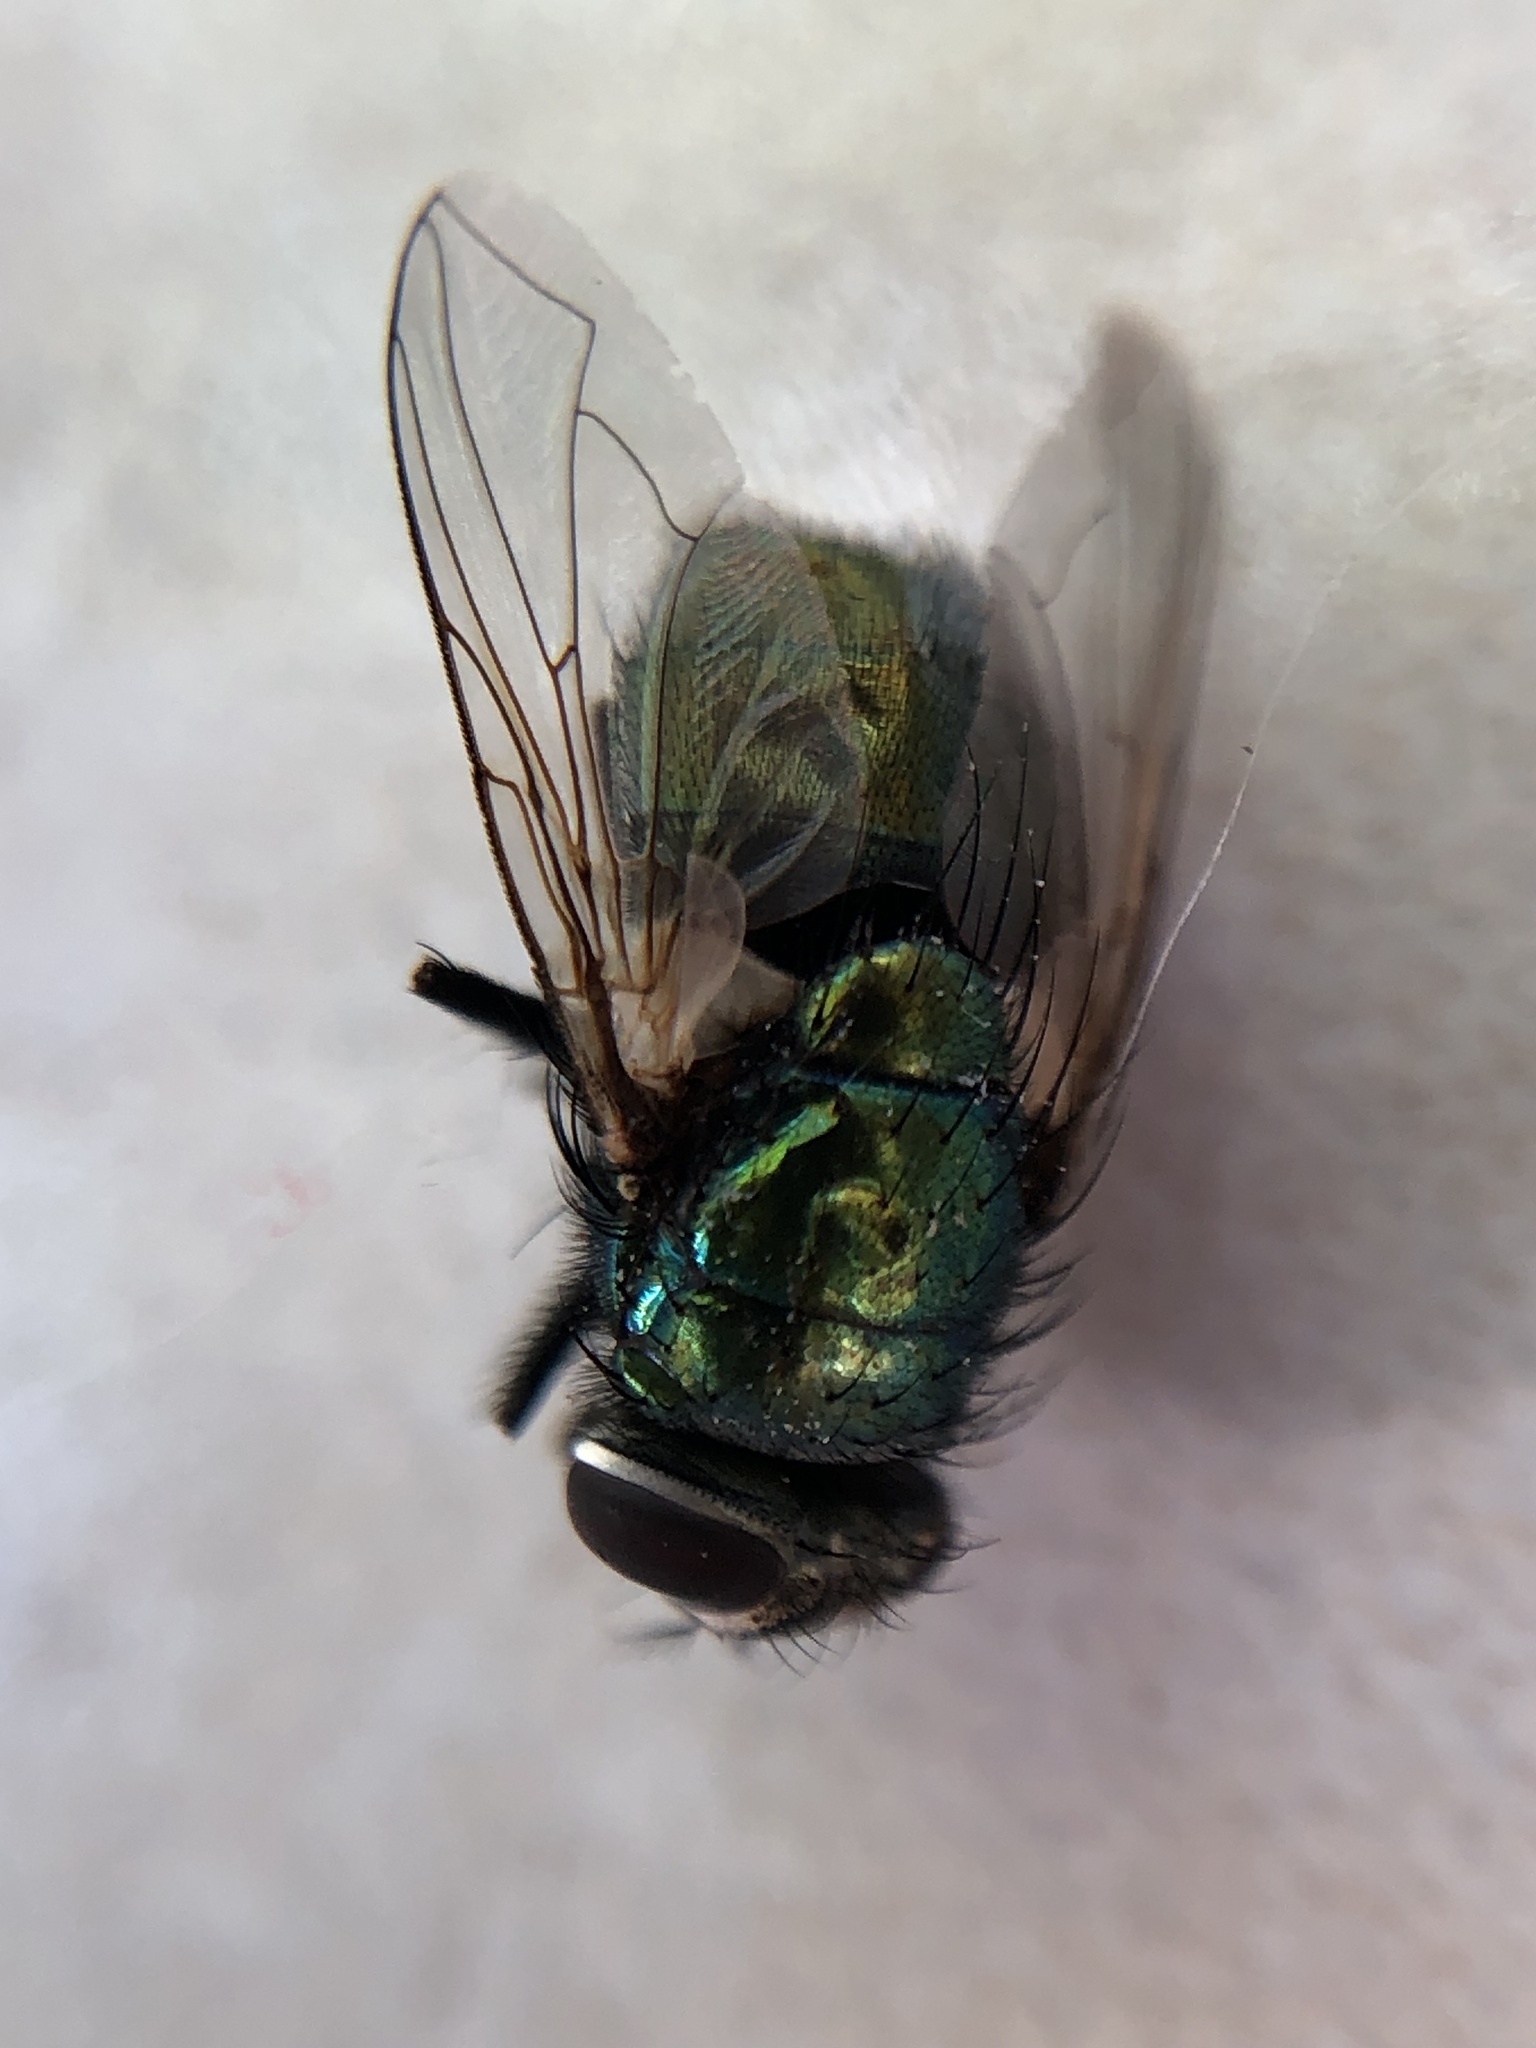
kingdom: Animalia
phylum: Arthropoda
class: Insecta
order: Diptera
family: Calliphoridae
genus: Lucilia
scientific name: Lucilia sericata
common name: Blow fly
